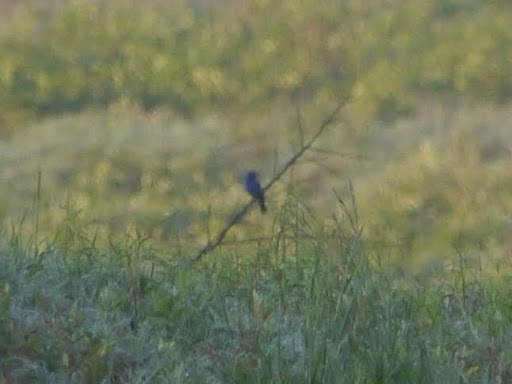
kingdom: Animalia
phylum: Chordata
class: Aves
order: Passeriformes
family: Cardinalidae
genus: Passerina
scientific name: Passerina caerulea
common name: Blue grosbeak
